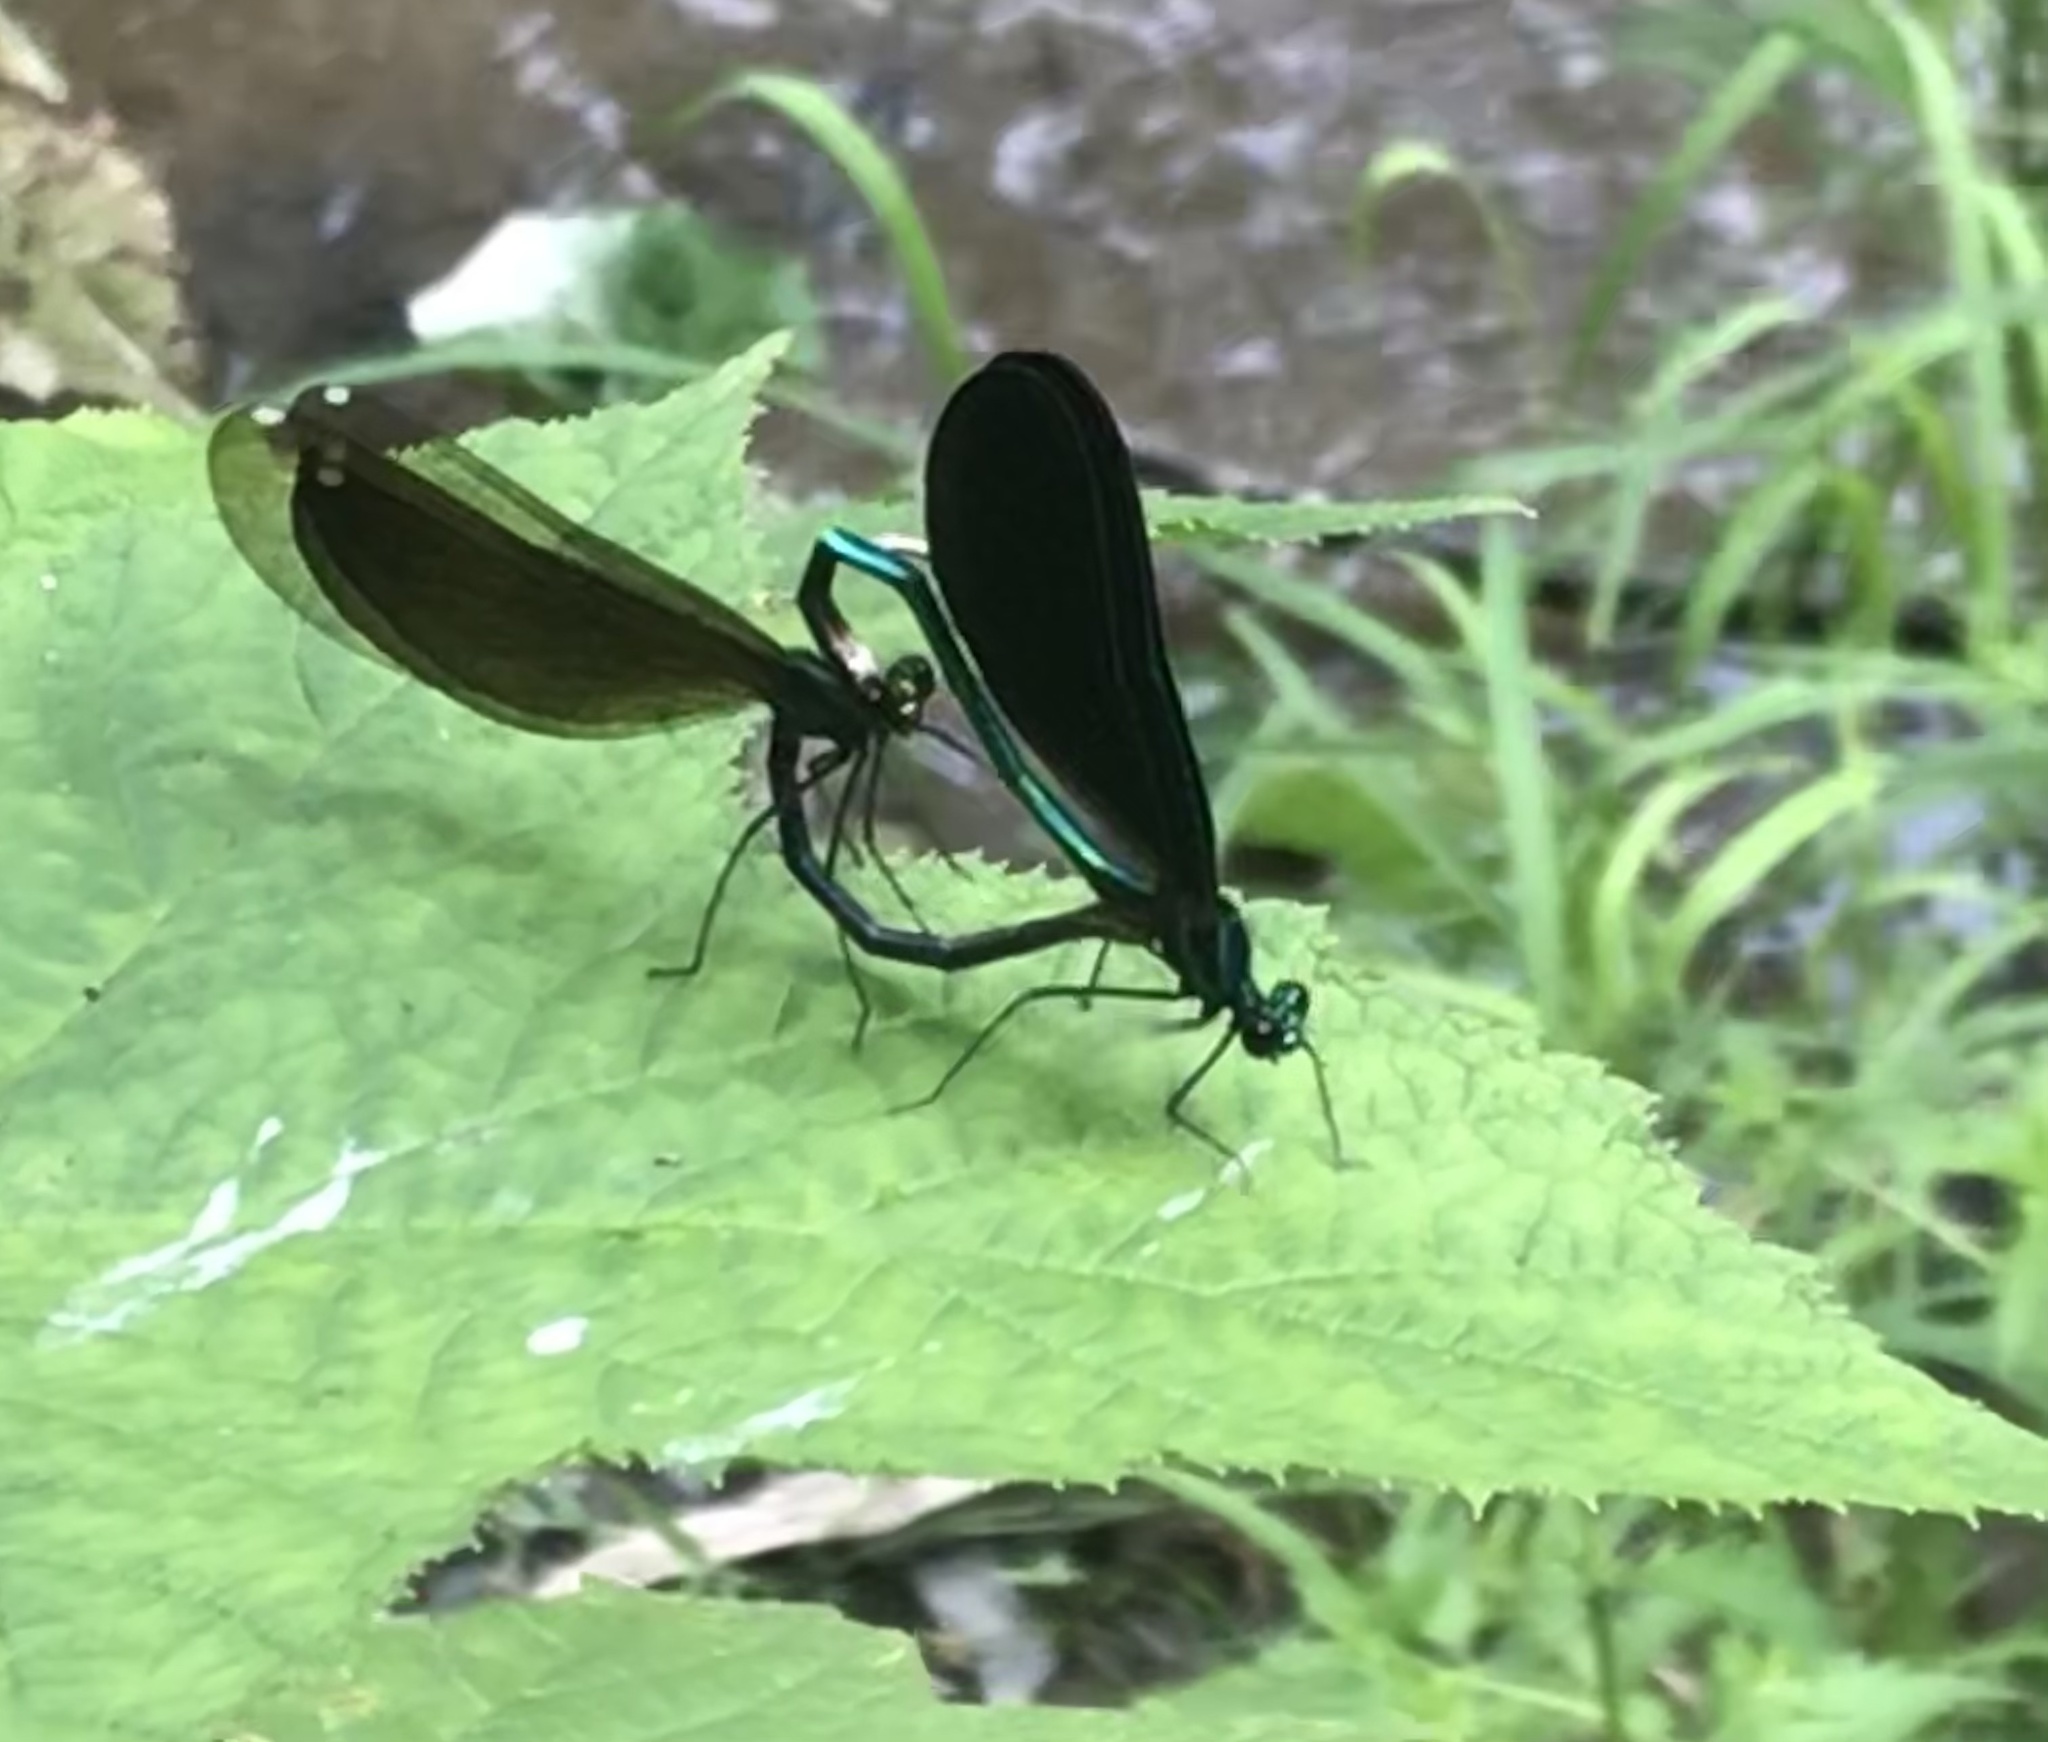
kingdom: Animalia
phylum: Arthropoda
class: Insecta
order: Odonata
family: Calopterygidae
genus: Calopteryx
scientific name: Calopteryx maculata
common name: Ebony jewelwing
